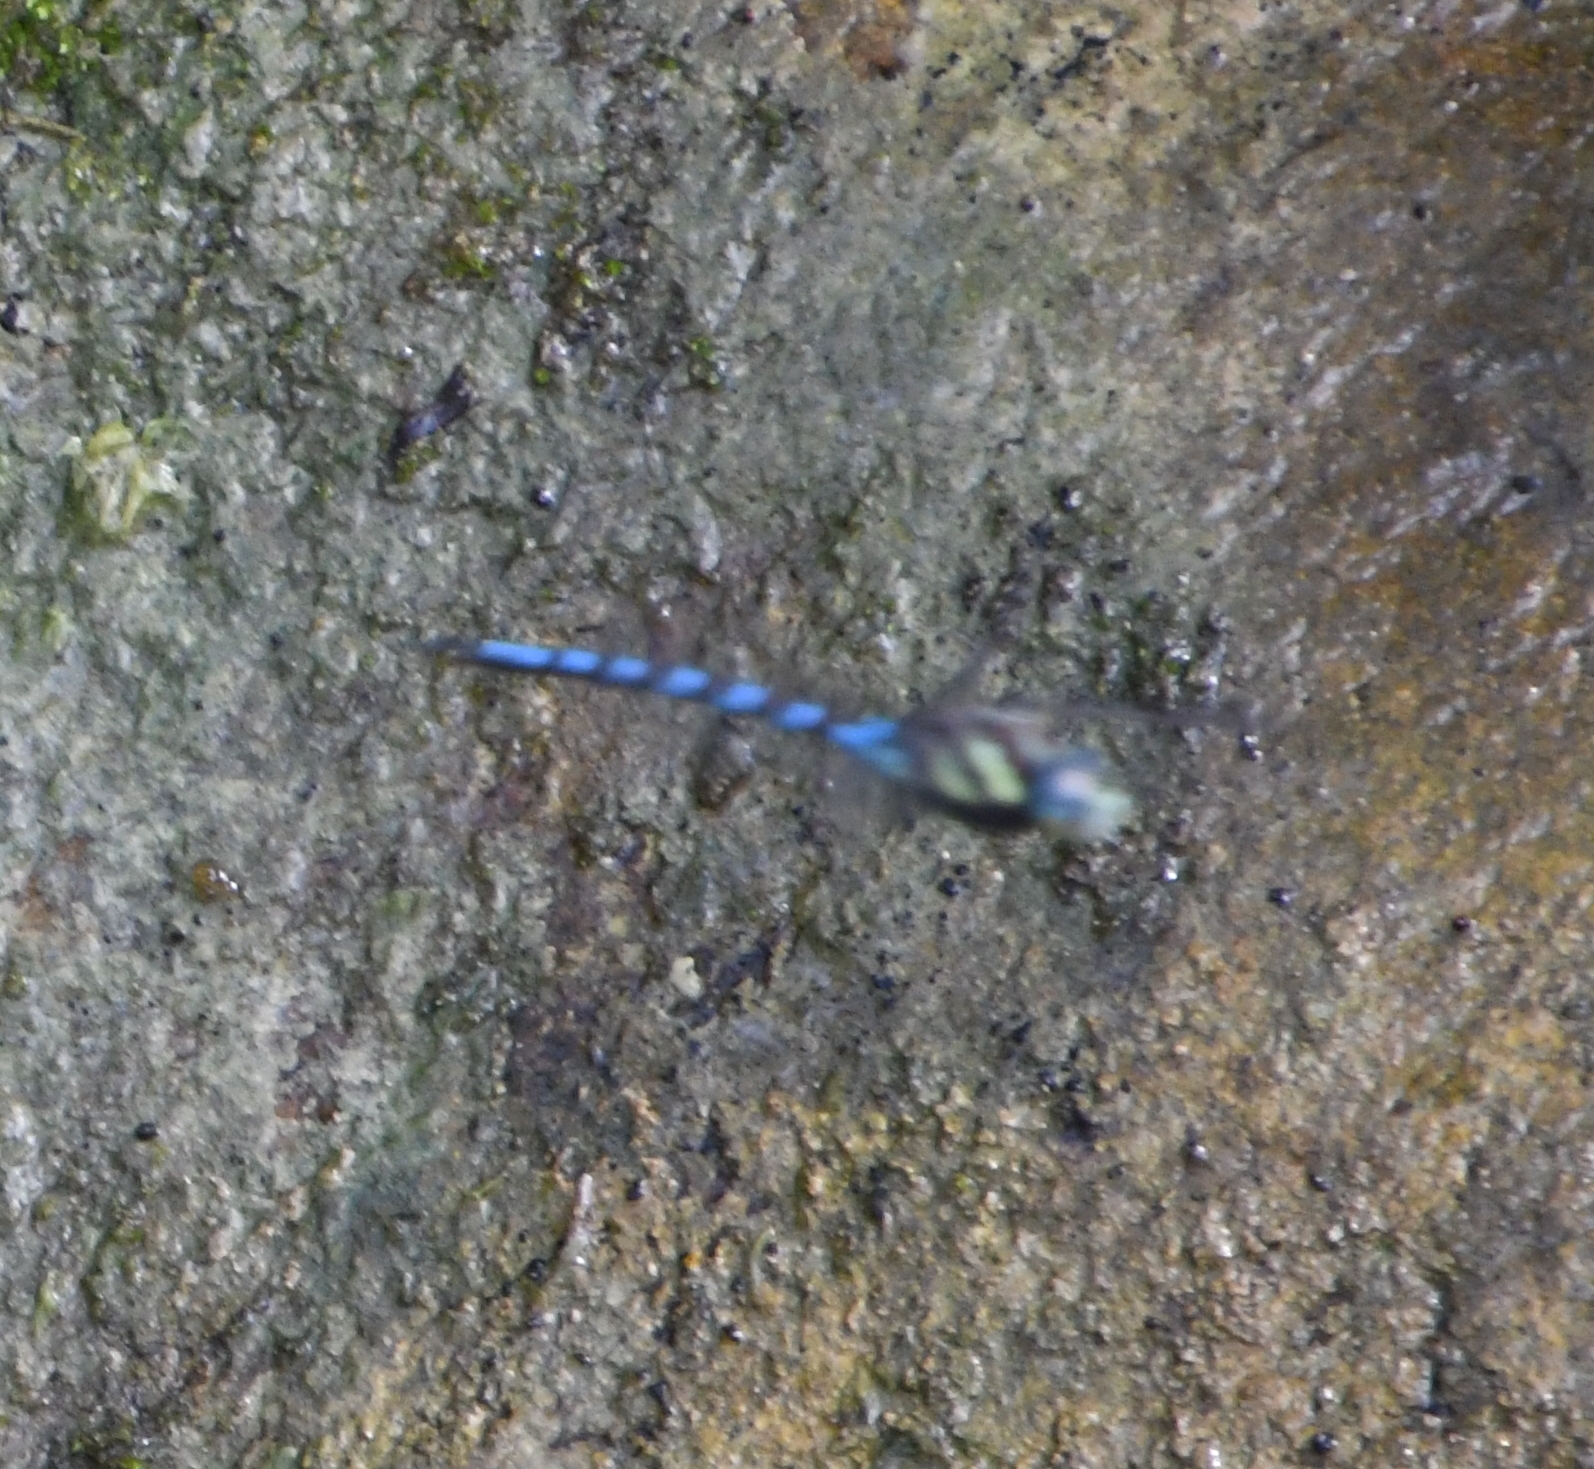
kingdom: Animalia
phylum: Arthropoda
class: Insecta
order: Odonata
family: Aeshnidae
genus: Aeshna
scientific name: Aeshna persephone
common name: Persephone's darner
